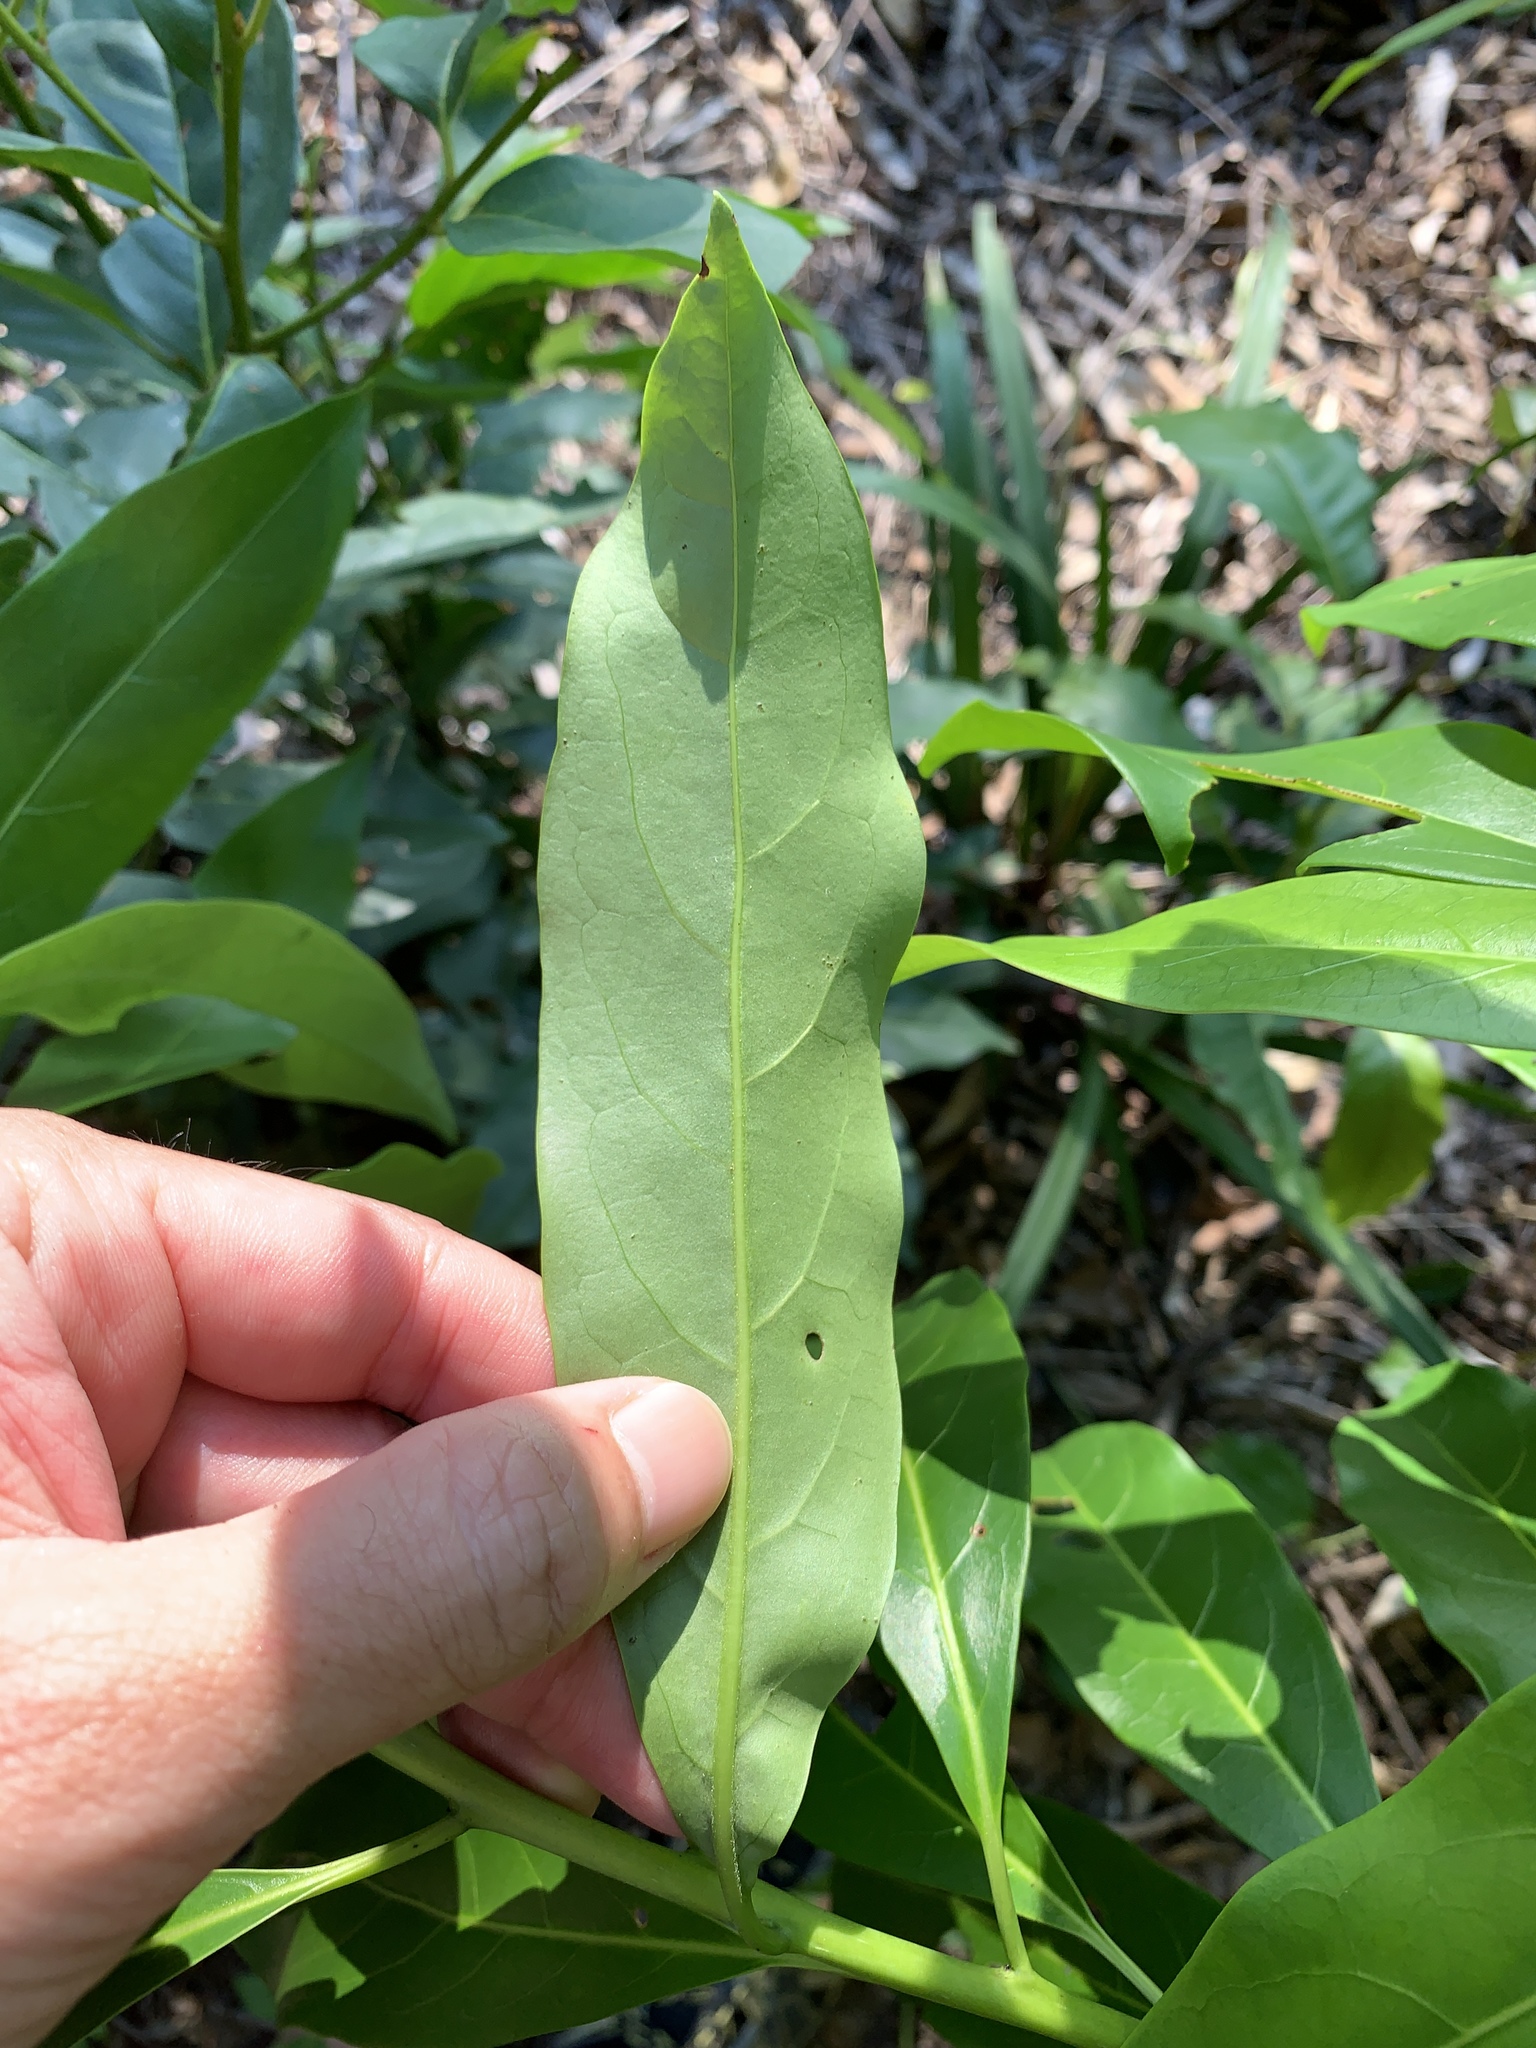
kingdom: Plantae
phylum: Tracheophyta
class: Magnoliopsida
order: Boraginales
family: Ehretiaceae
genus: Ehretia
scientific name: Ehretia longiflora
